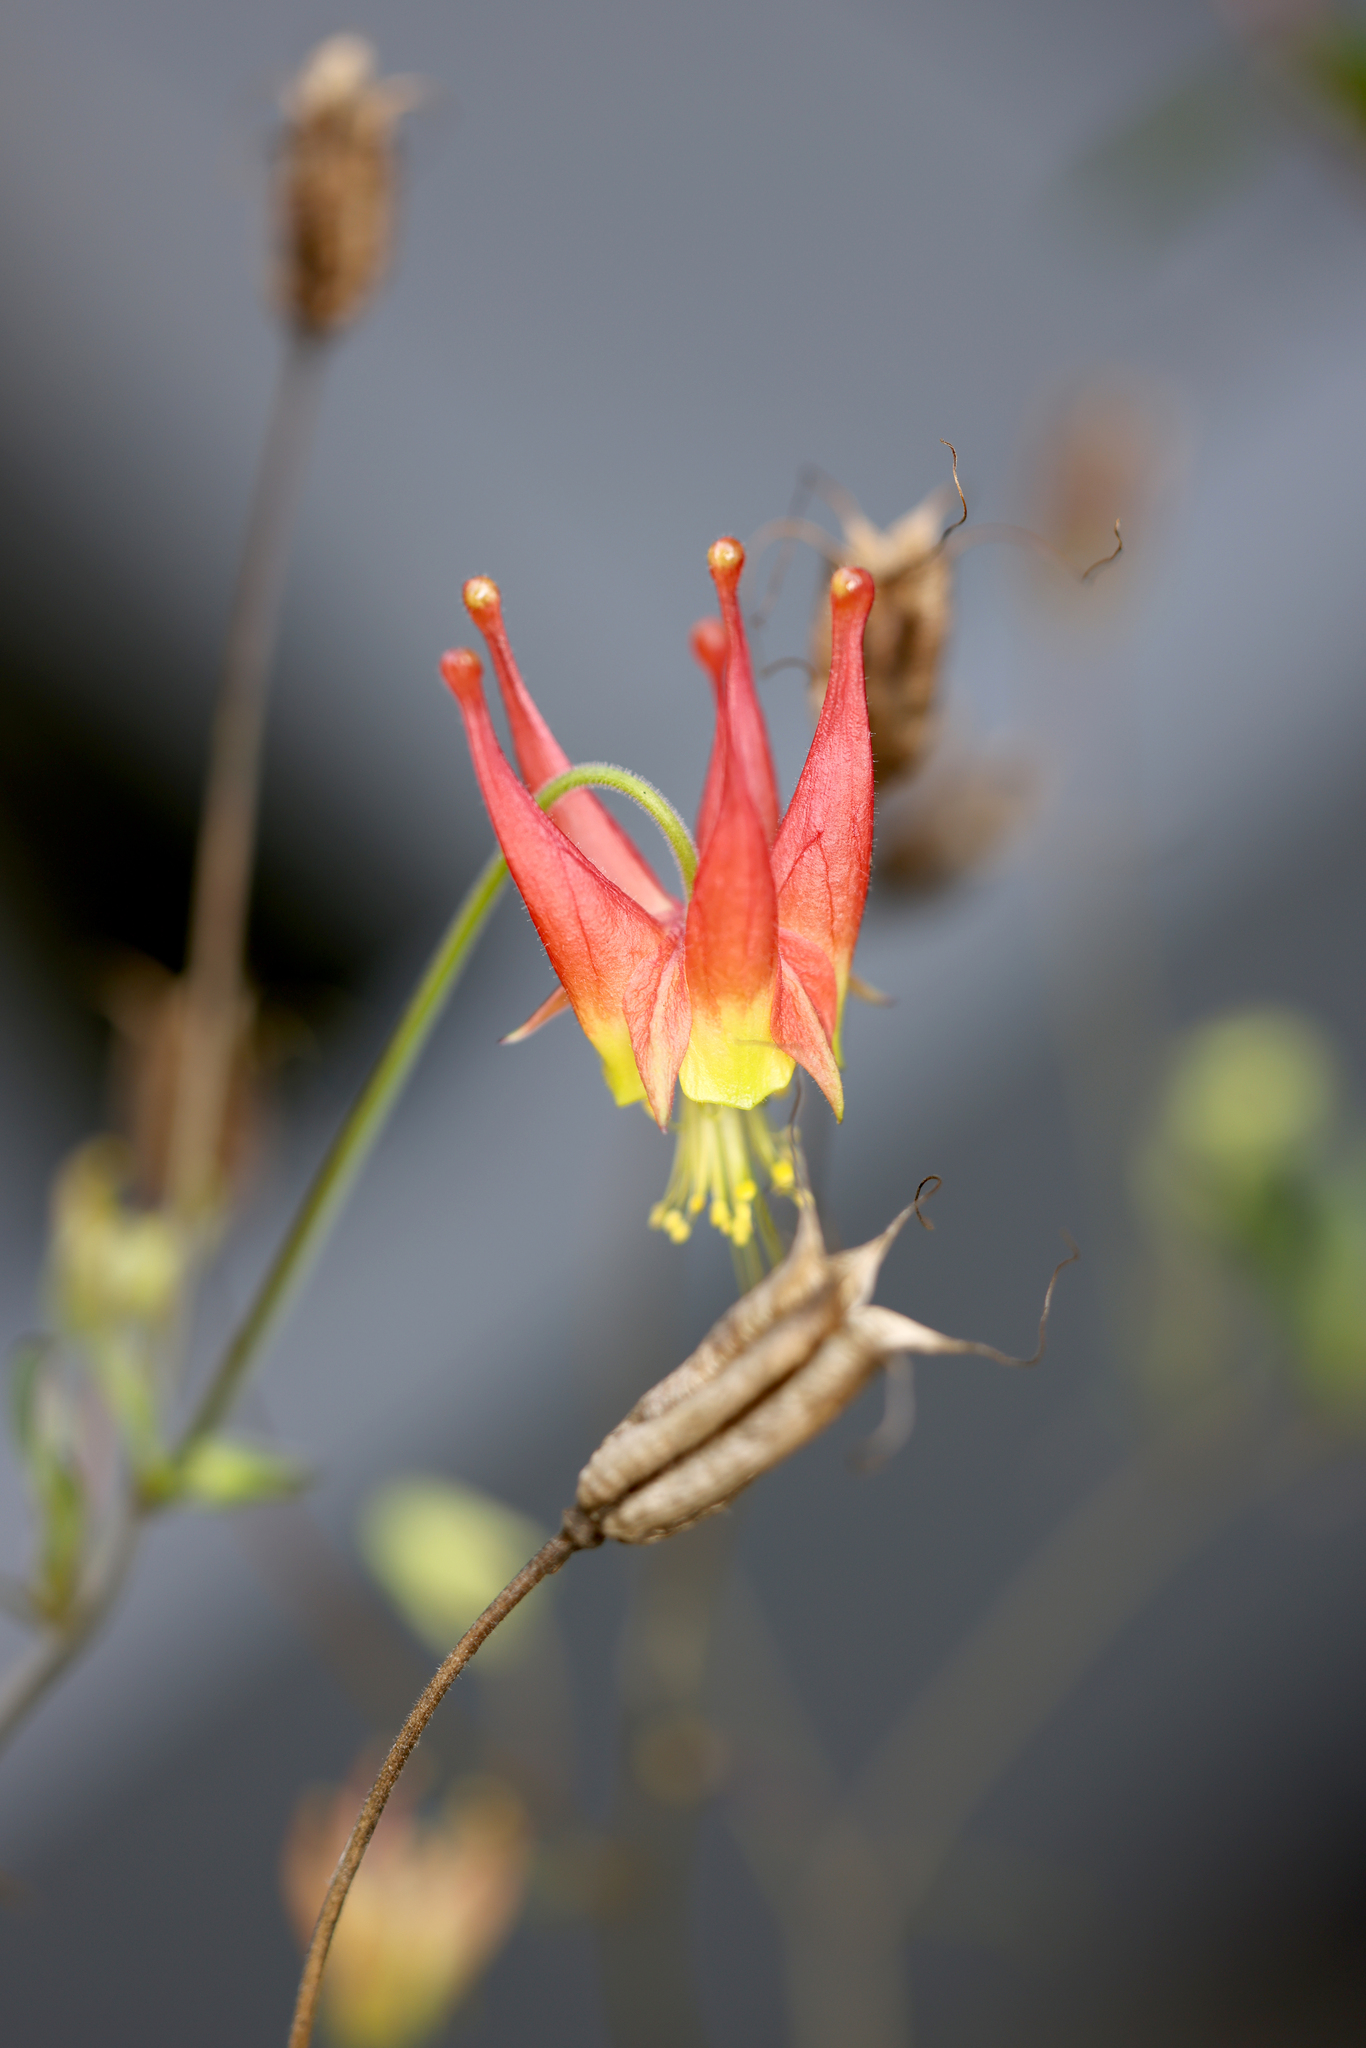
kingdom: Plantae
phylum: Tracheophyta
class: Magnoliopsida
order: Ranunculales
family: Ranunculaceae
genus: Aquilegia
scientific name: Aquilegia canadensis
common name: American columbine
